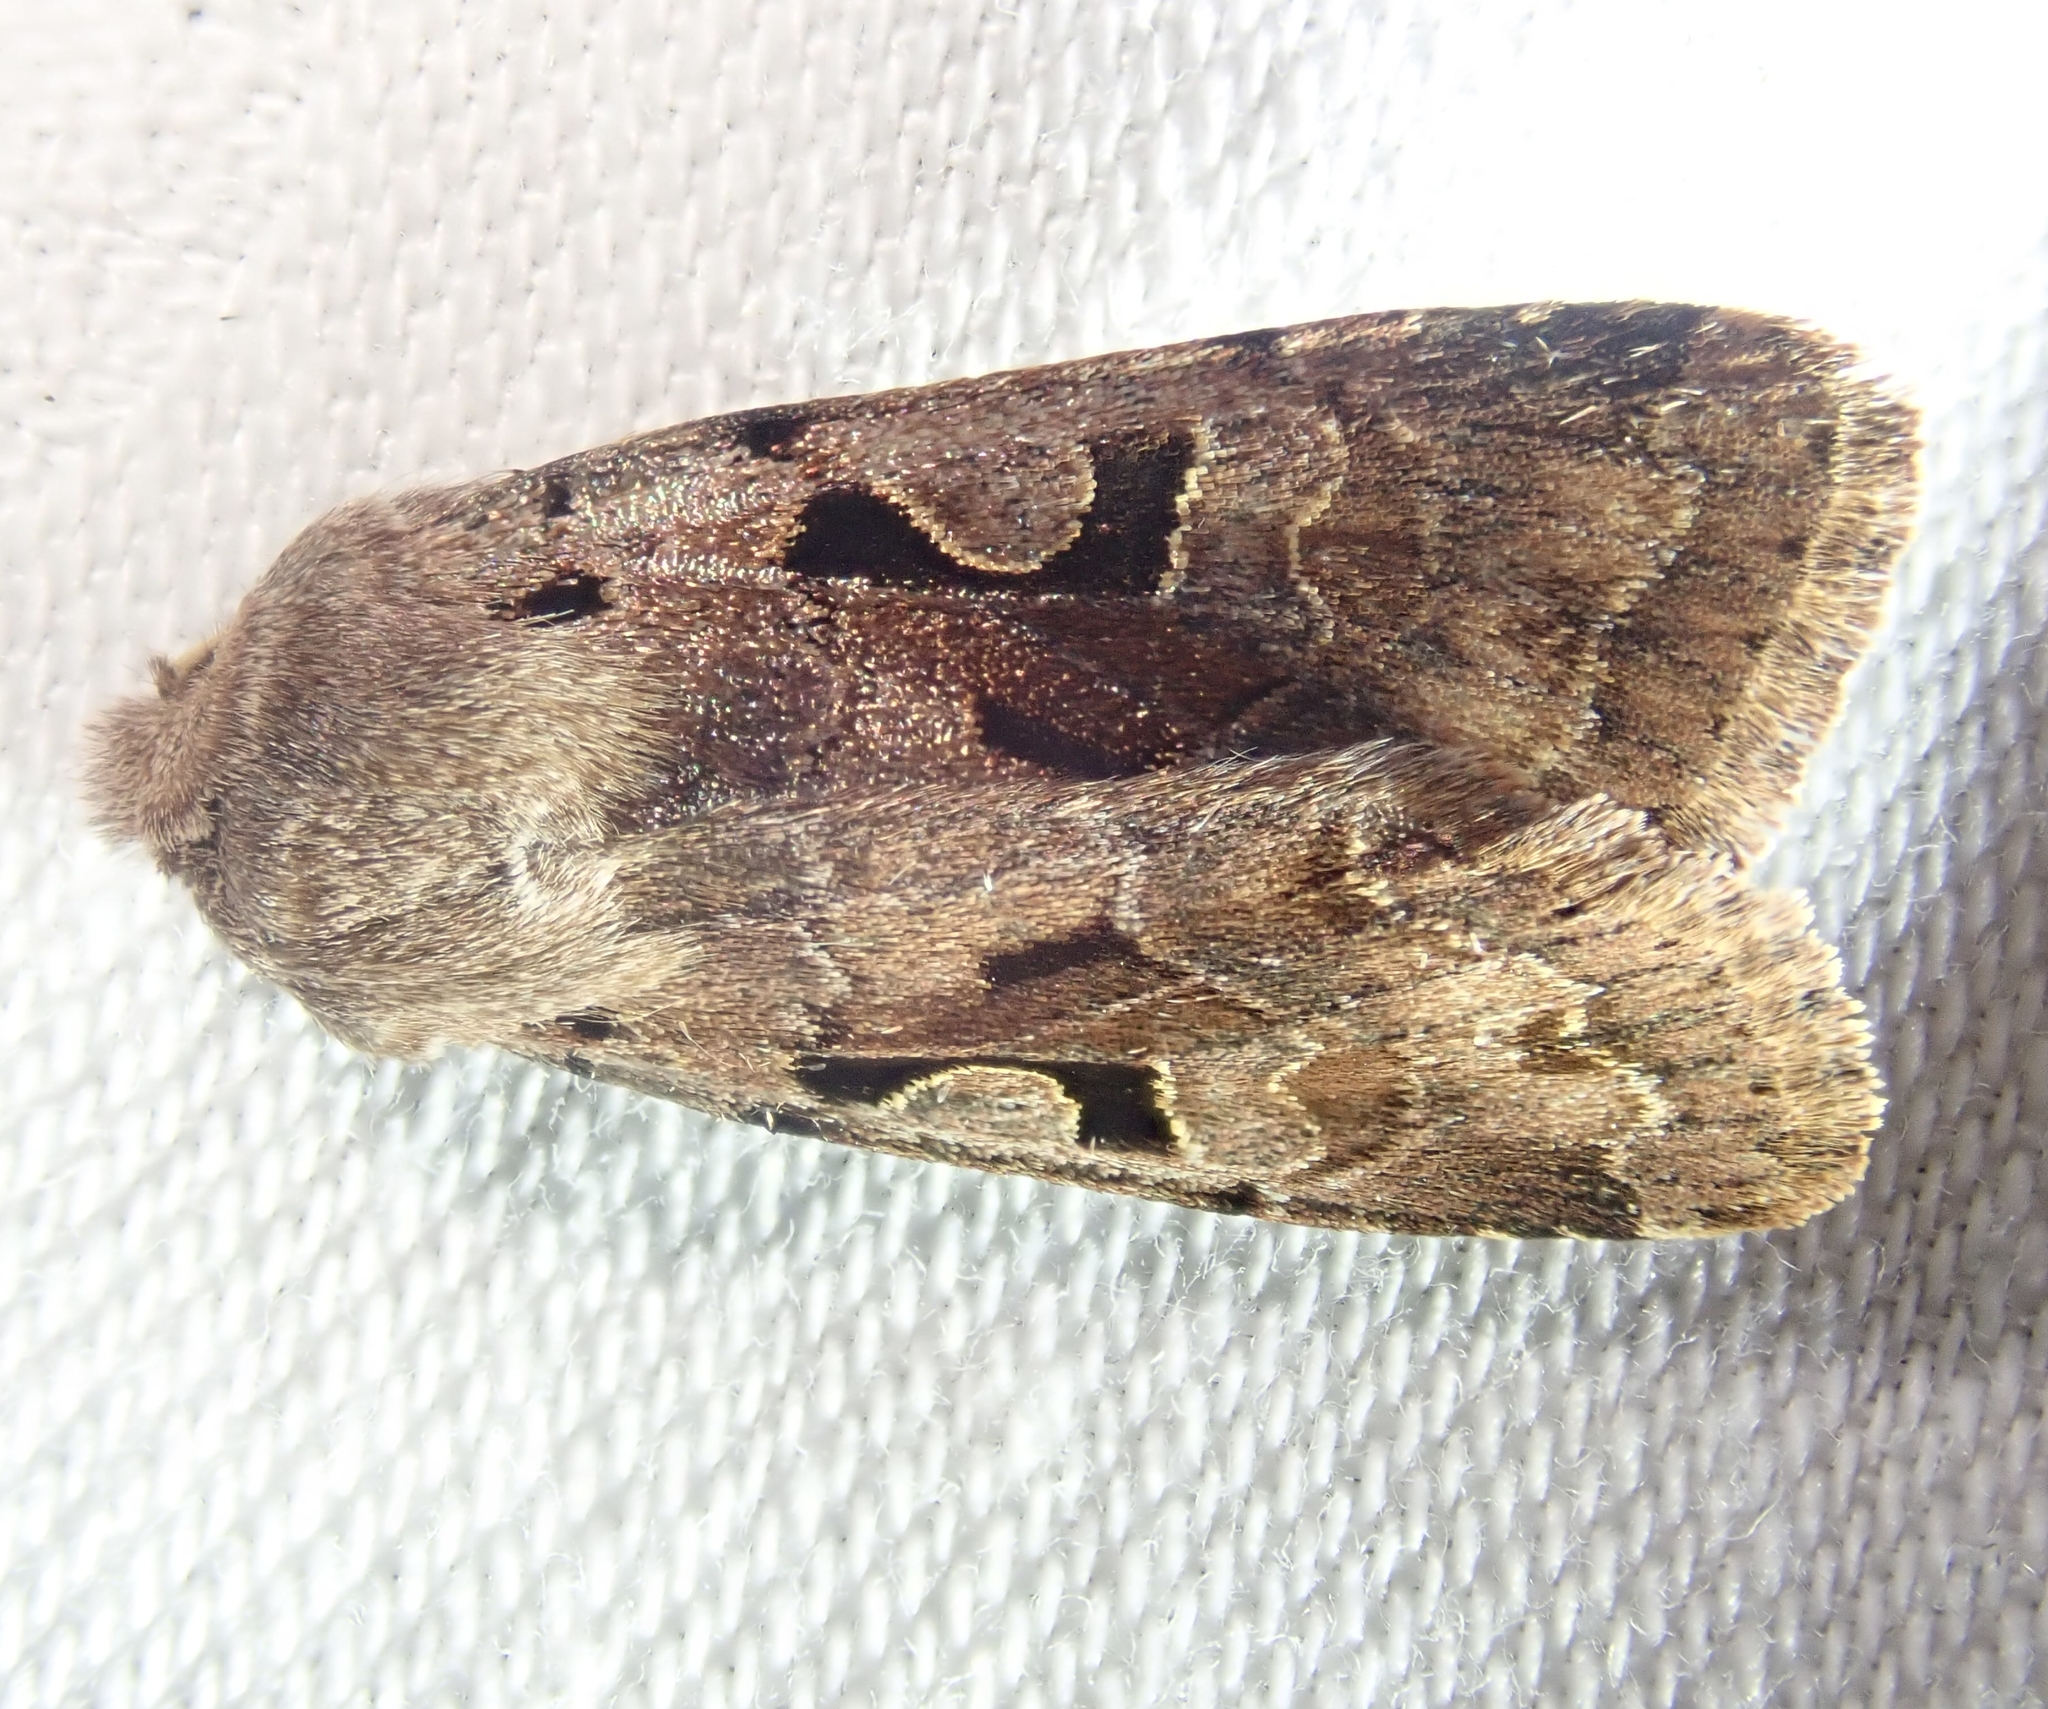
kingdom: Animalia
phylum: Arthropoda
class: Insecta
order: Lepidoptera
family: Noctuidae
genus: Orthosia
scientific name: Orthosia gothica
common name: Hebrew character
